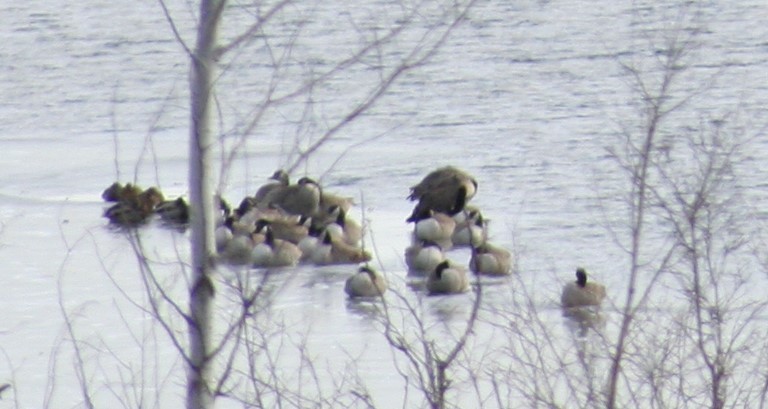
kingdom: Animalia
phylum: Chordata
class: Aves
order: Anseriformes
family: Anatidae
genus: Branta
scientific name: Branta canadensis
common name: Canada goose
